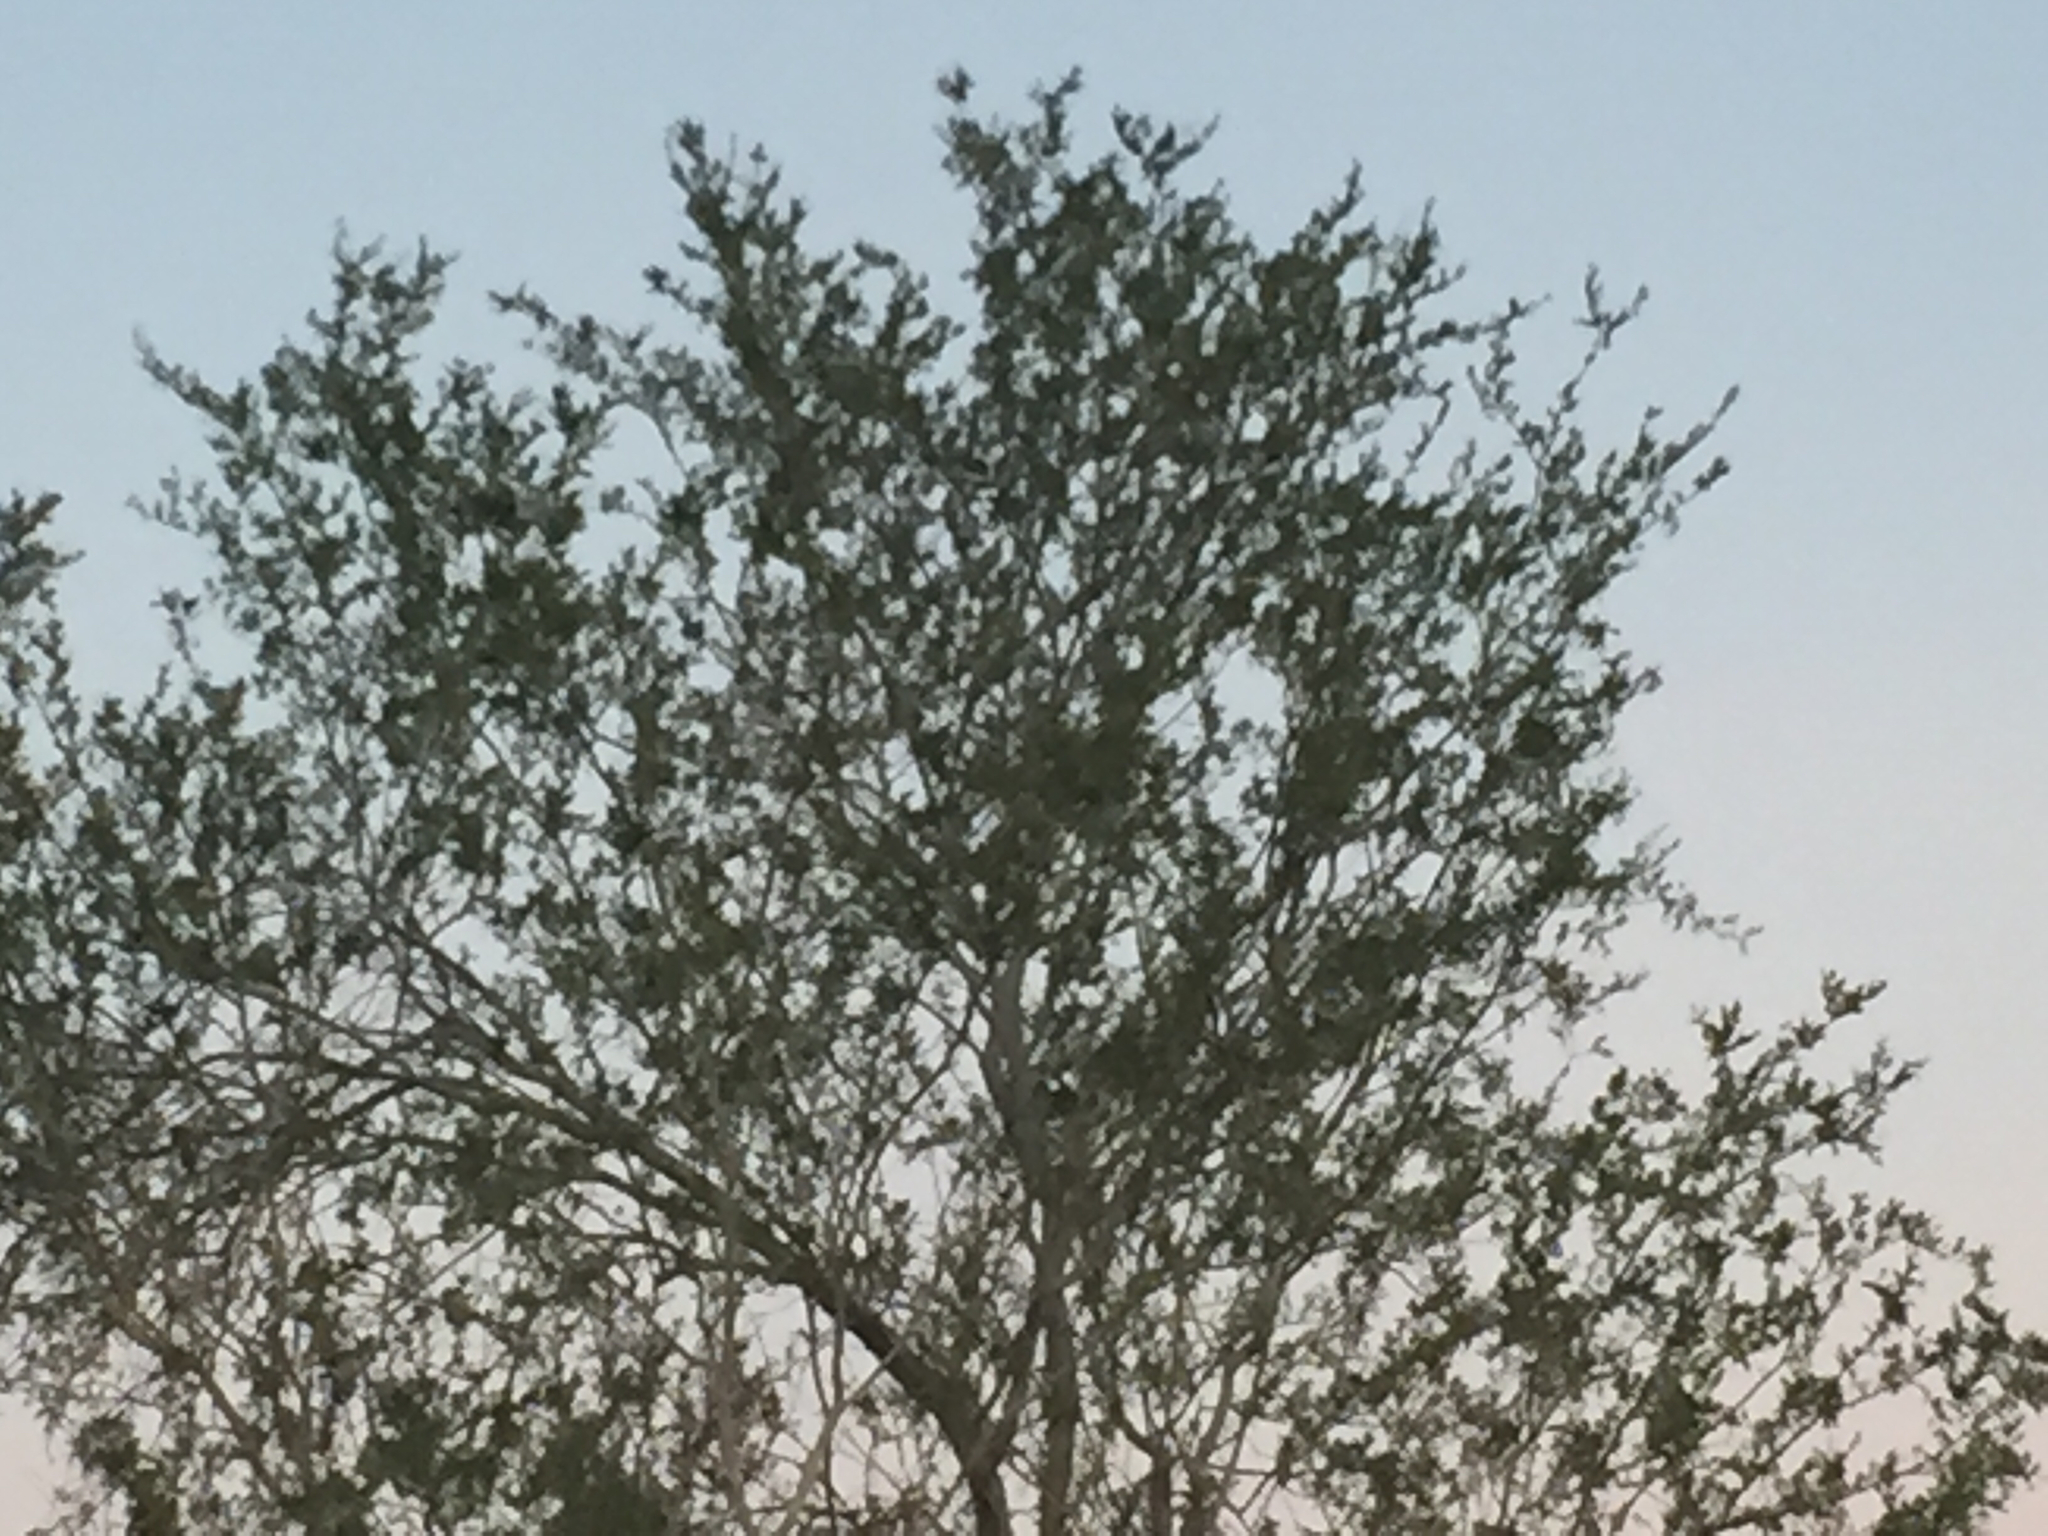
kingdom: Plantae
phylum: Tracheophyta
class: Magnoliopsida
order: Fabales
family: Fabaceae
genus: Olneya
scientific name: Olneya tesota
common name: Desert ironwood
